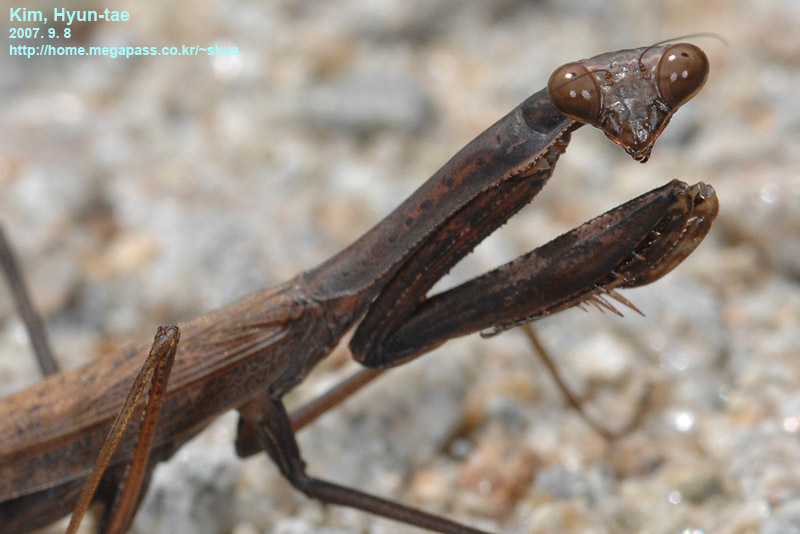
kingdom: Animalia
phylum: Arthropoda
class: Insecta
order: Mantodea
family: Mantidae
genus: Statilia
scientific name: Statilia maculata
